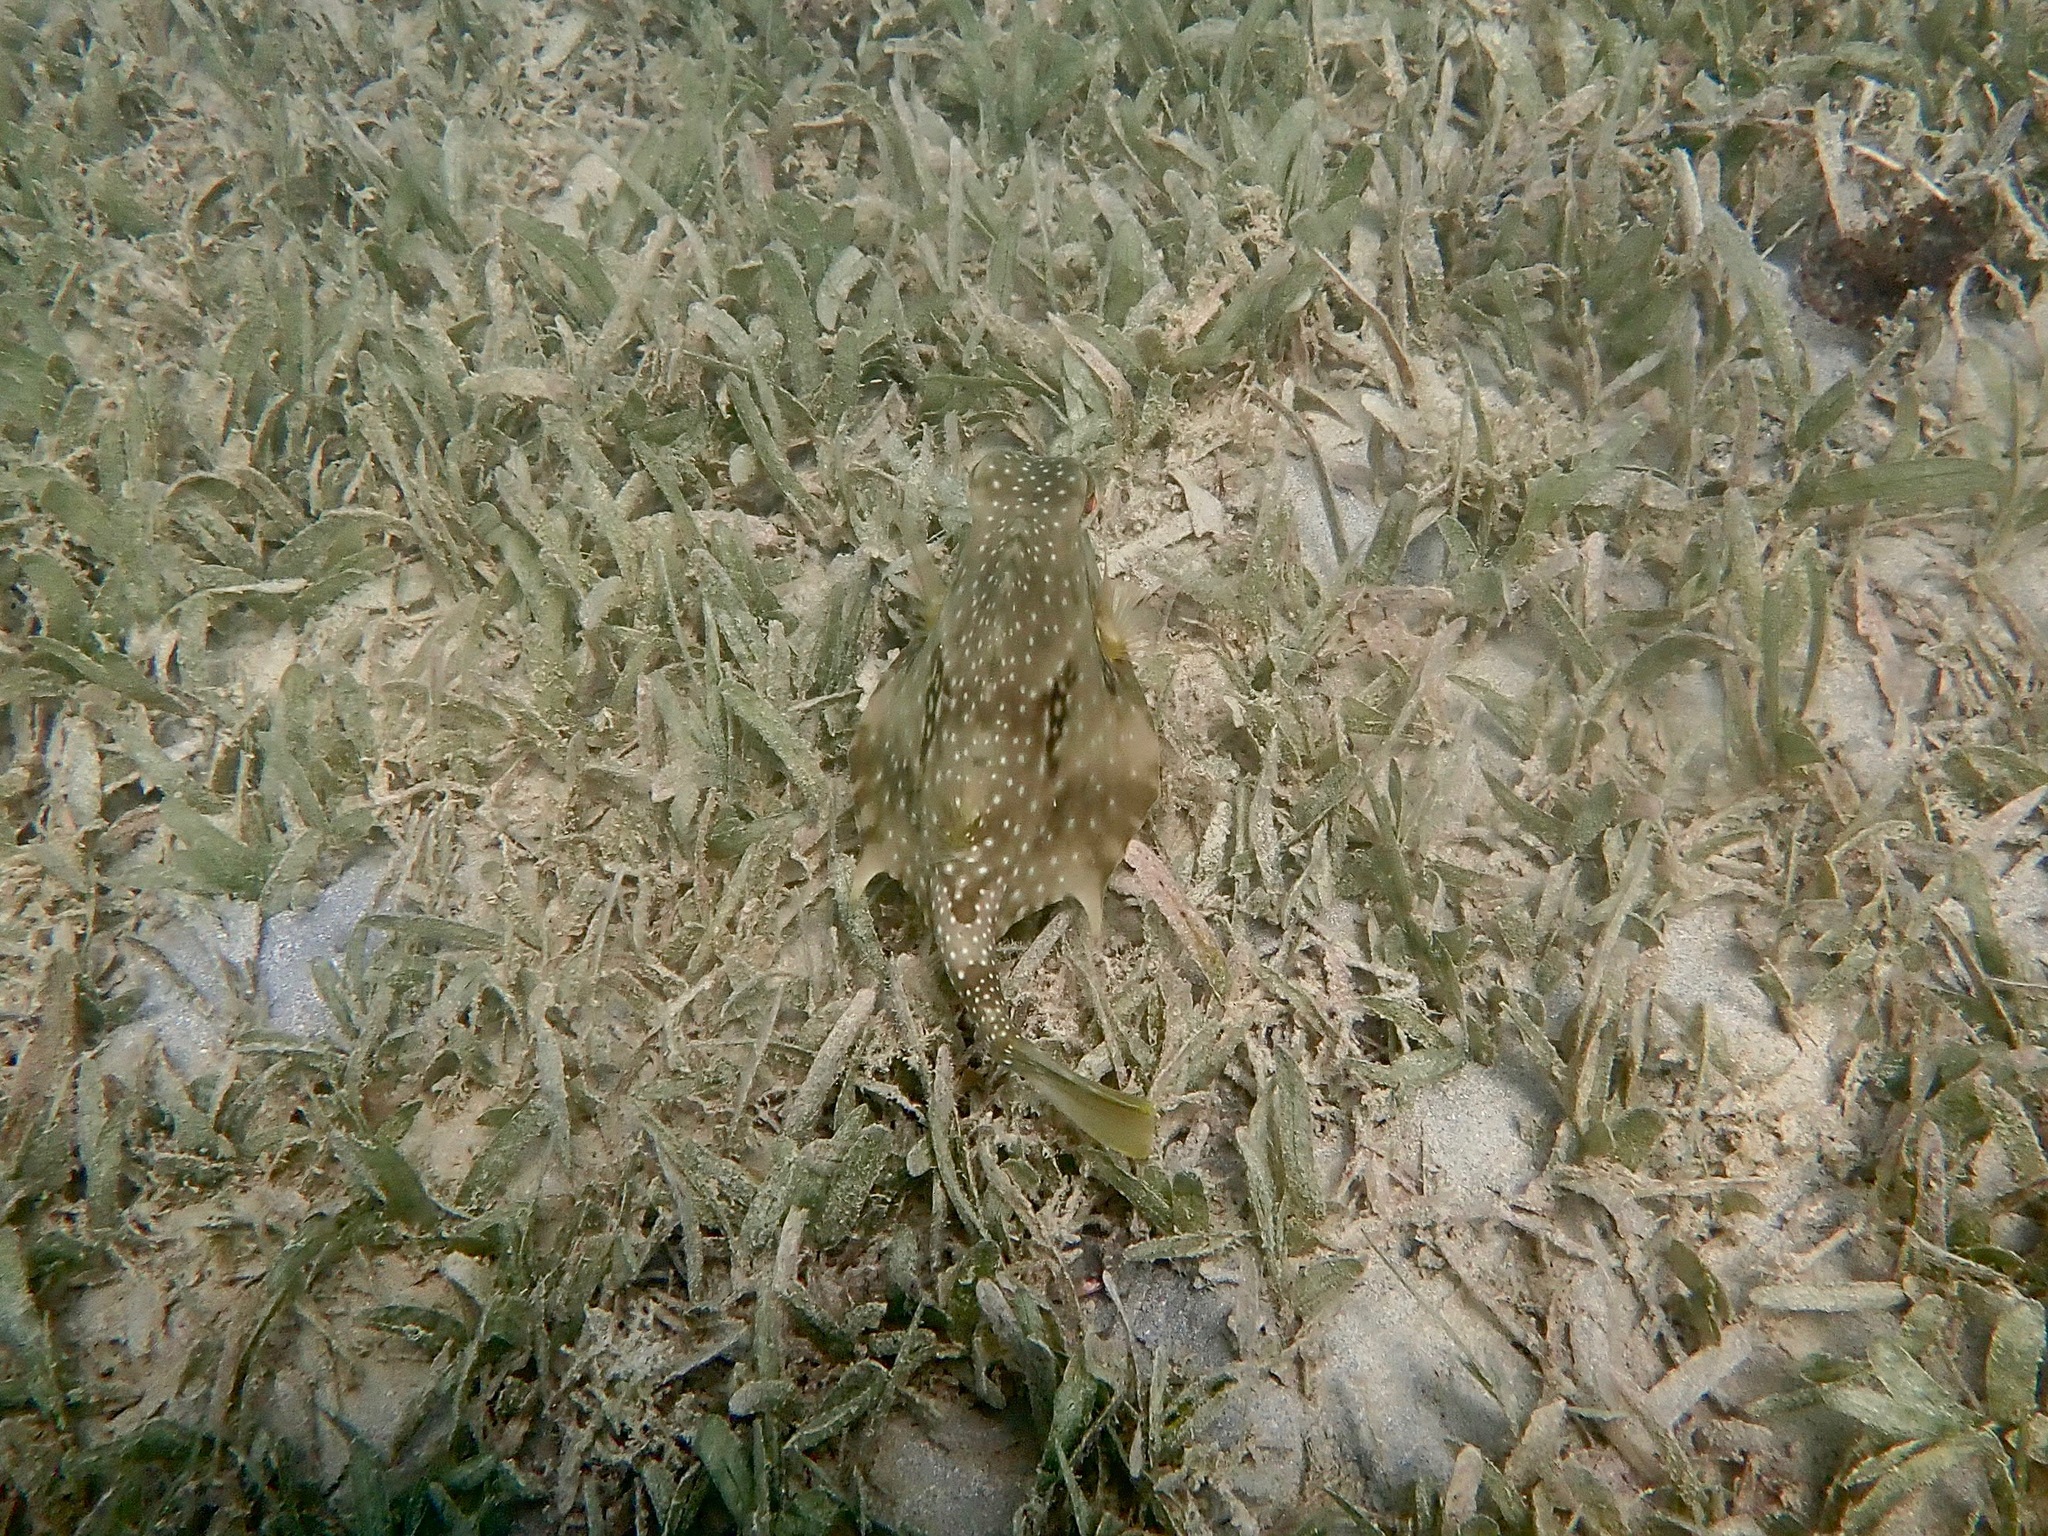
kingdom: Animalia
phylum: Chordata
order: Tetraodontiformes
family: Ostraciidae
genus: Lactophrys
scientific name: Lactophrys trigonus
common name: Buffalo trunkfish
